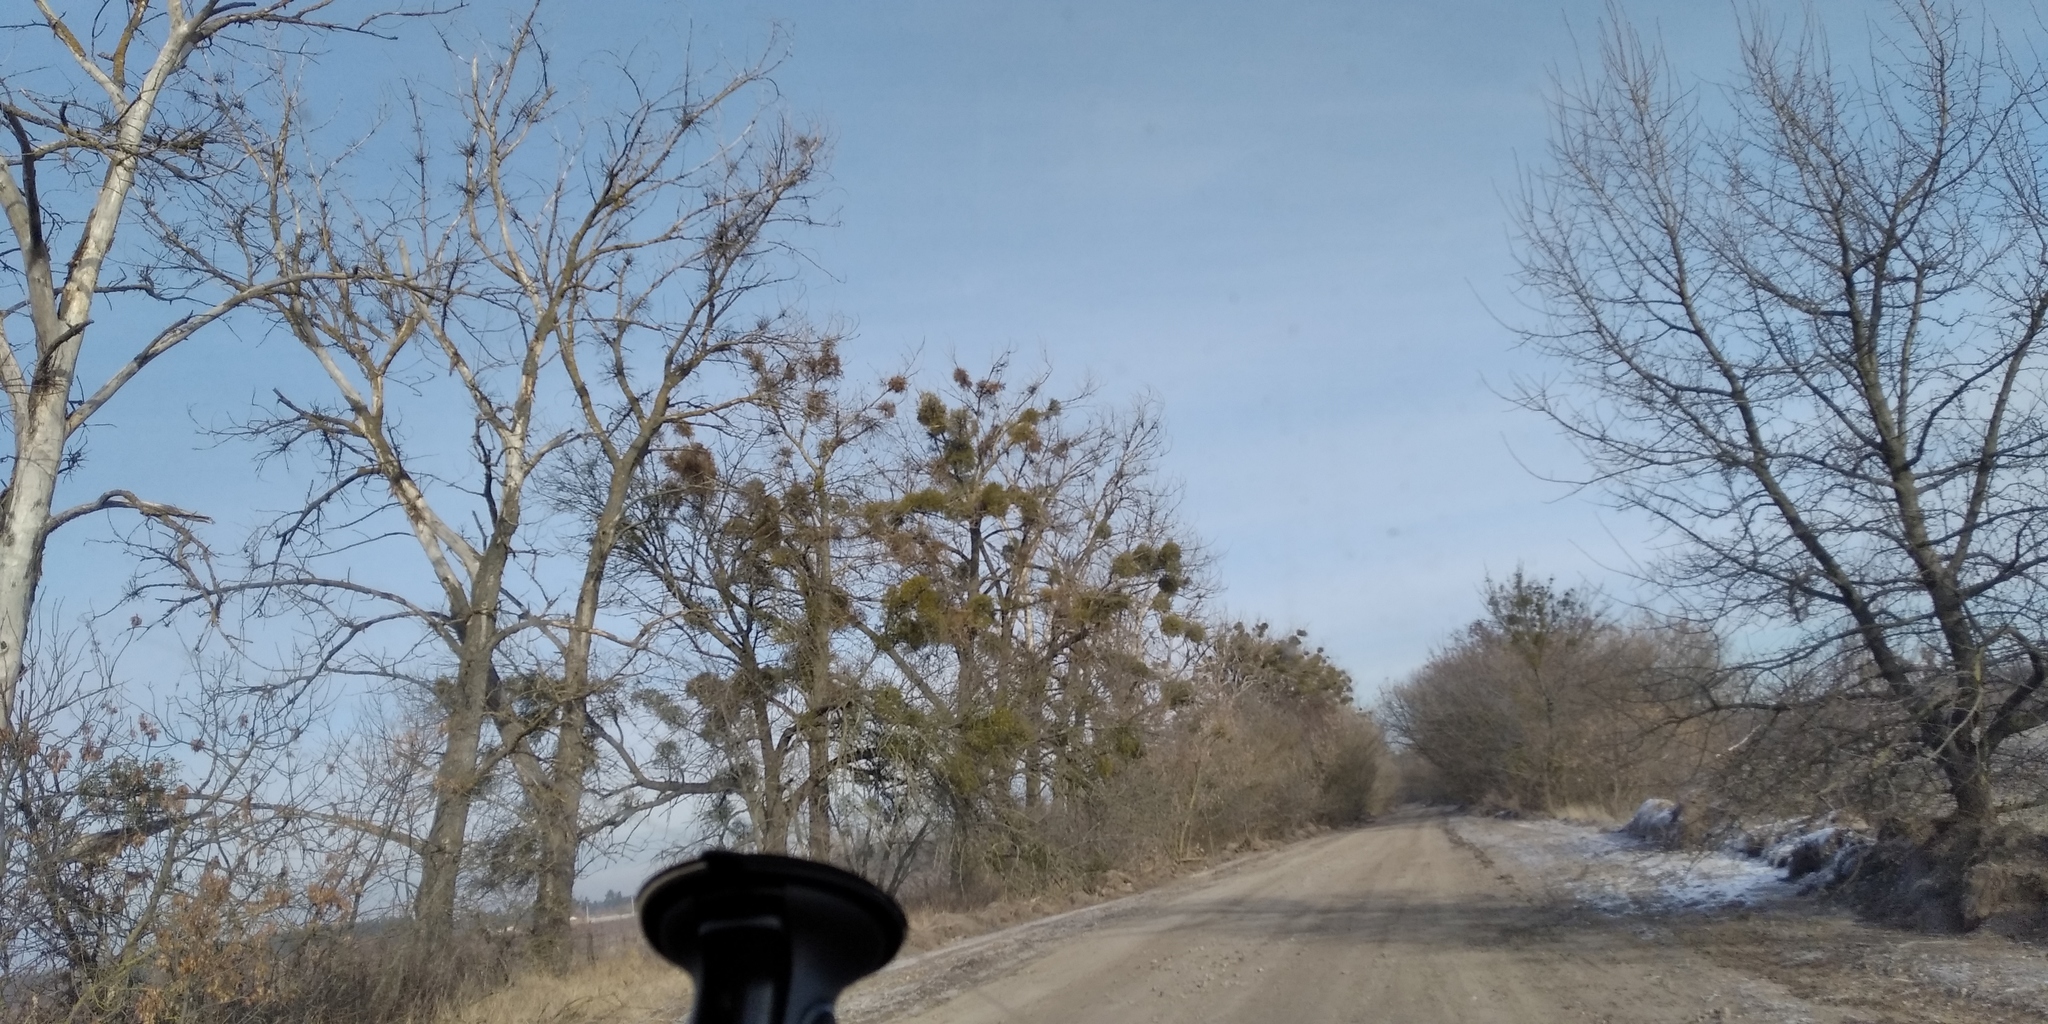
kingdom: Plantae
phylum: Tracheophyta
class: Magnoliopsida
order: Santalales
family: Viscaceae
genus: Viscum
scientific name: Viscum album
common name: Mistletoe
